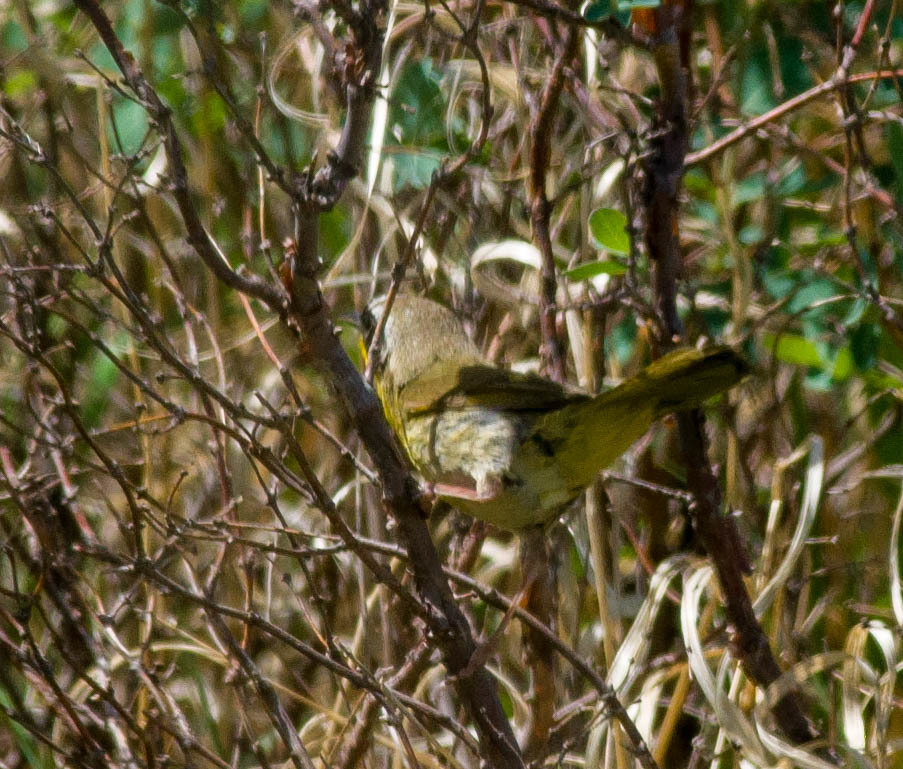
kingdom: Animalia
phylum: Chordata
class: Aves
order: Passeriformes
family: Parulidae
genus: Geothlypis
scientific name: Geothlypis trichas
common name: Common yellowthroat
